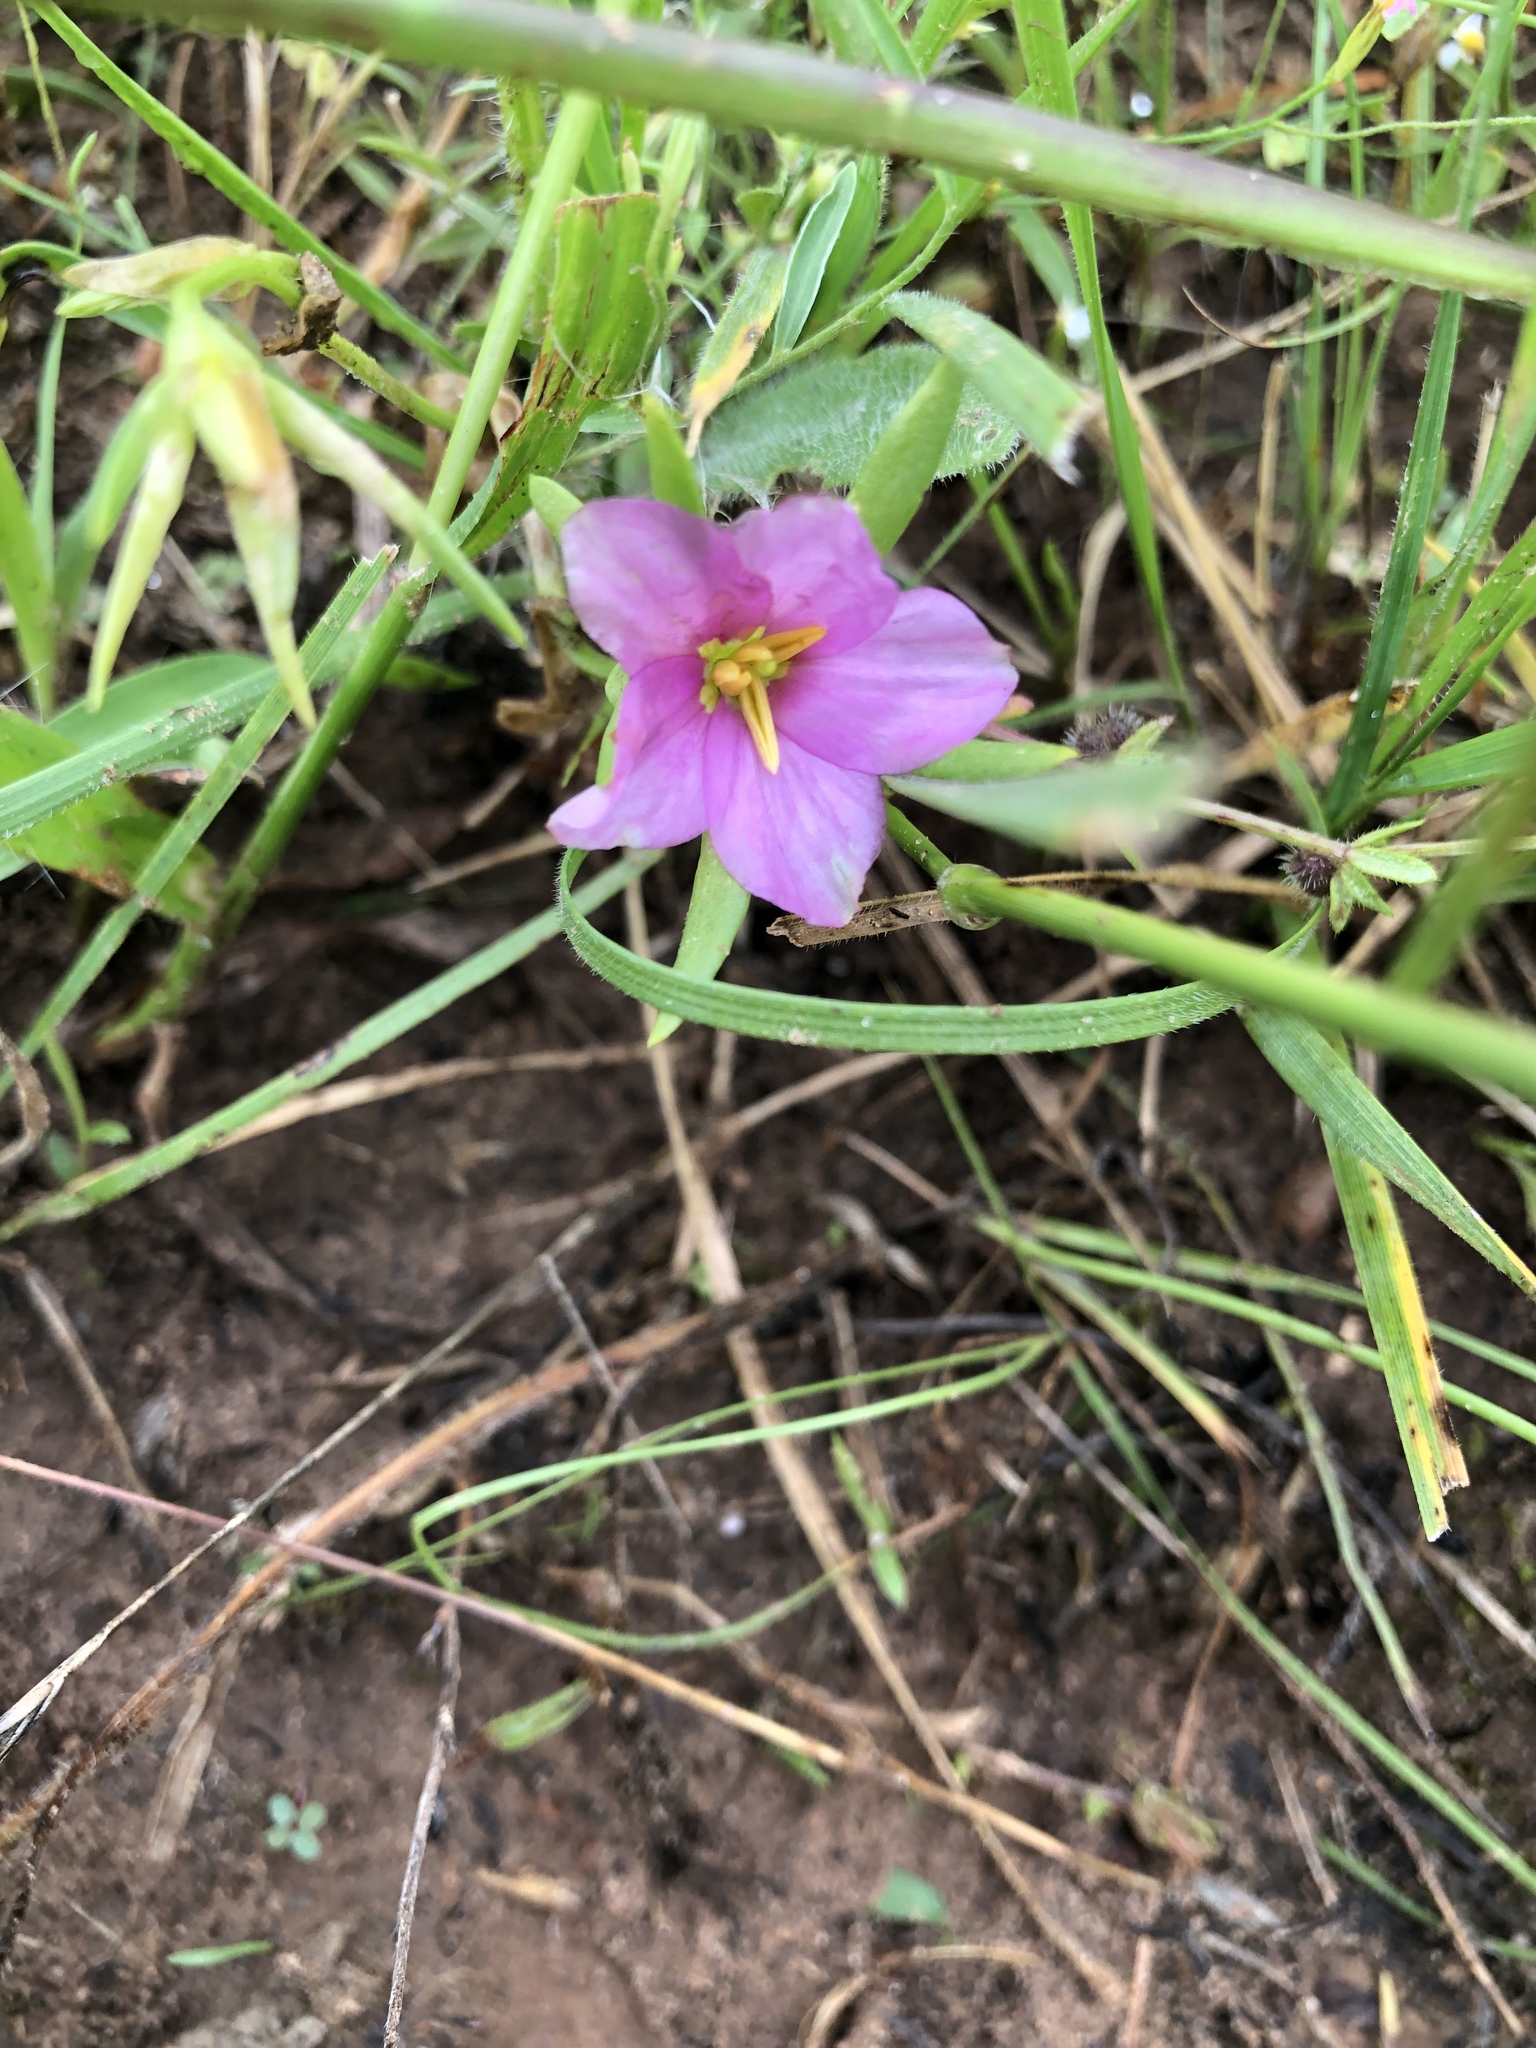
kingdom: Plantae
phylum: Tracheophyta
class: Magnoliopsida
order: Gentianales
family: Gentianaceae
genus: Sabatia
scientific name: Sabatia campestris
